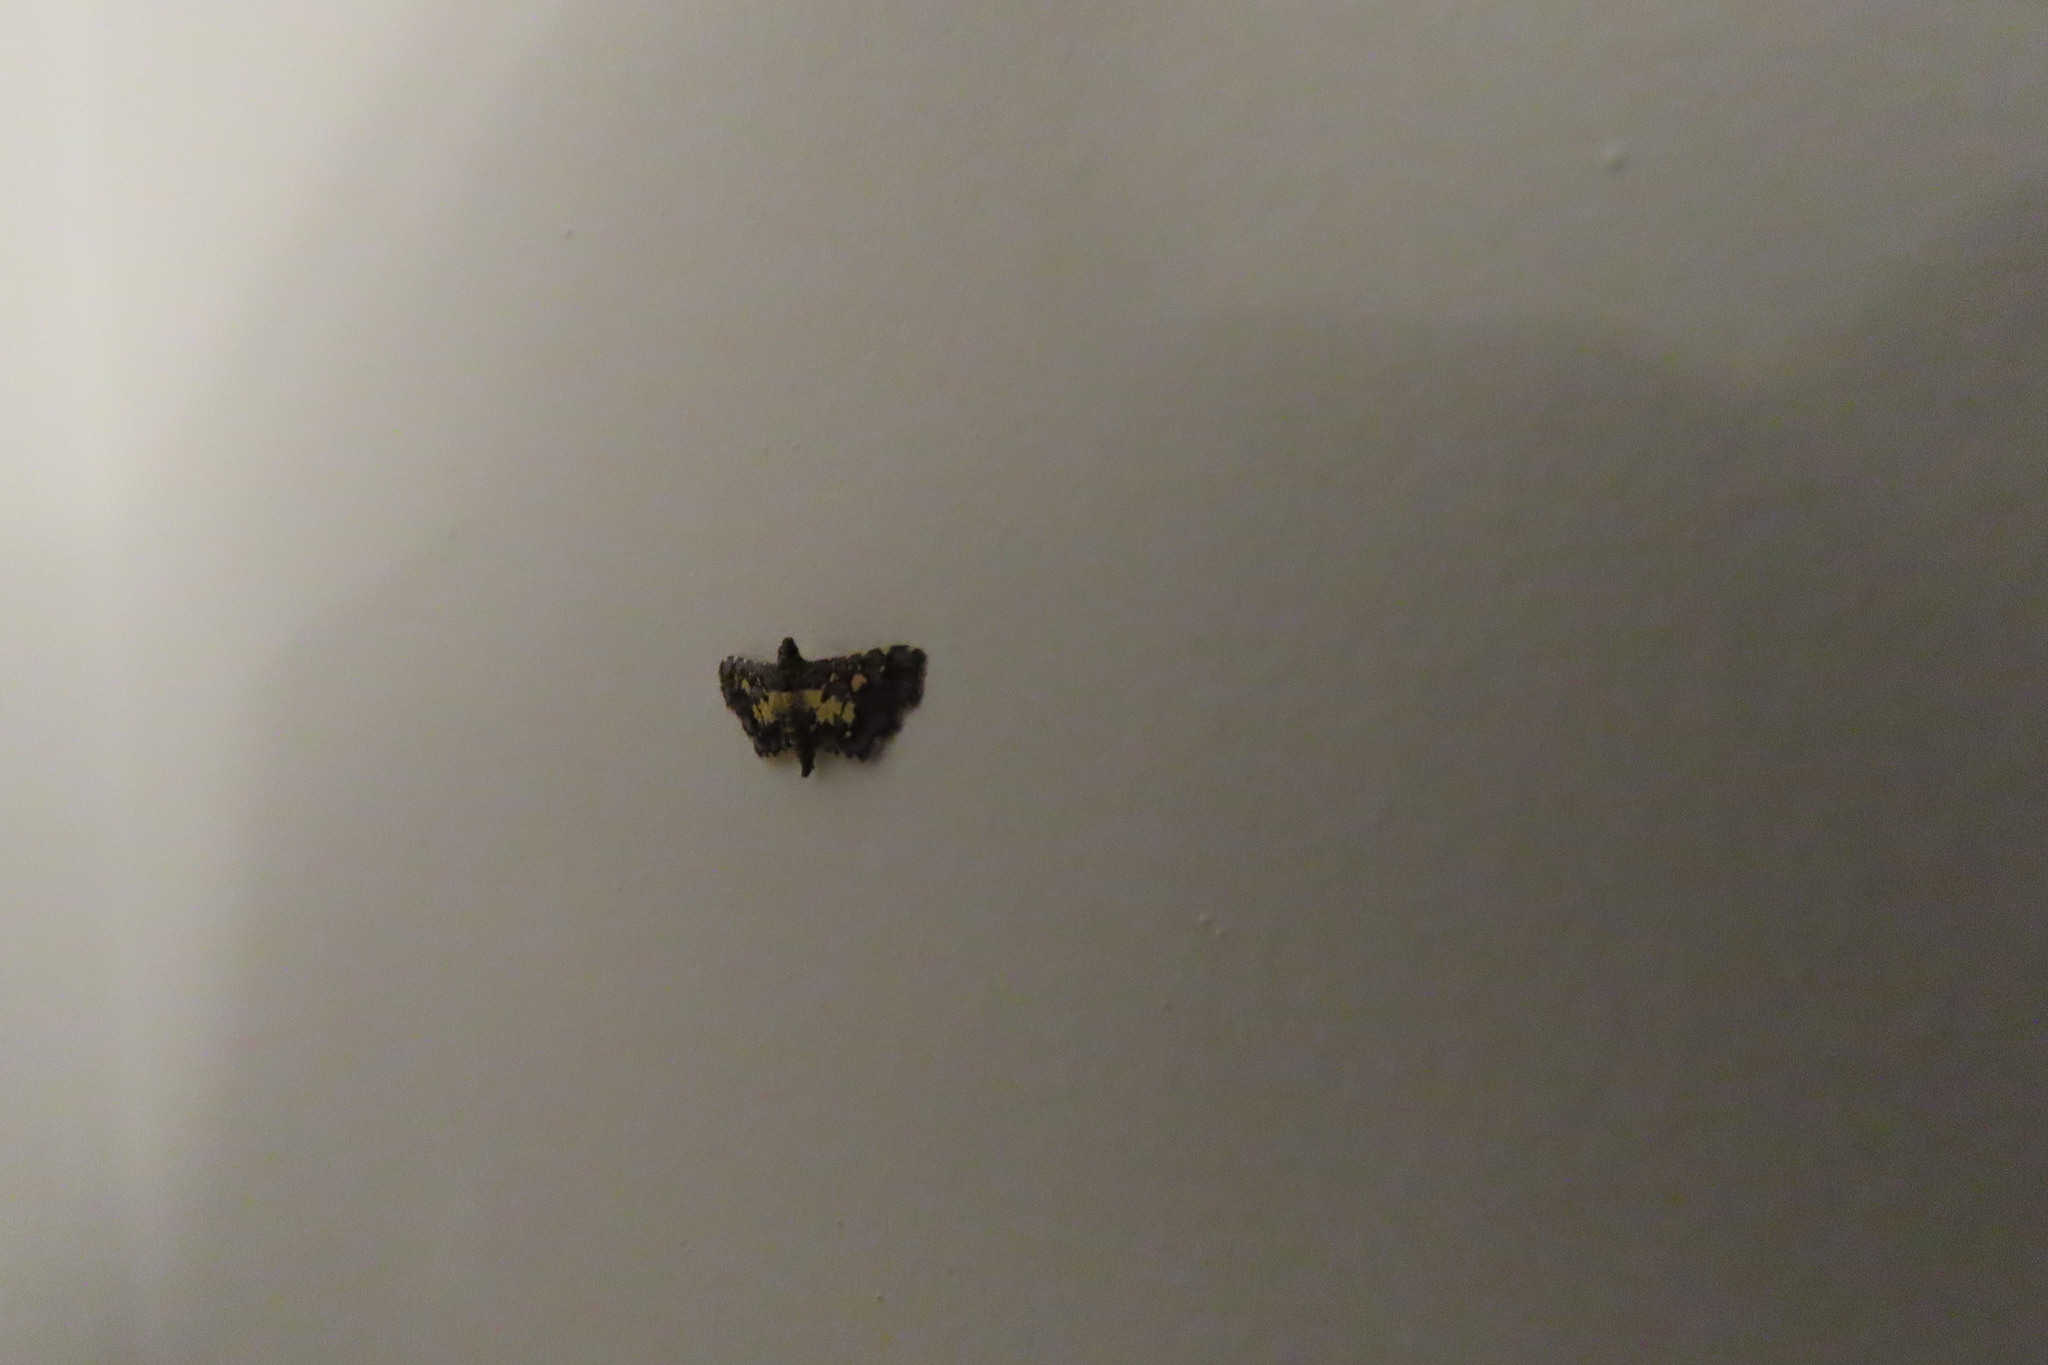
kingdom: Animalia
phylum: Arthropoda
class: Insecta
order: Lepidoptera
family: Crambidae
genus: Eurrhyparodes
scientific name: Eurrhyparodes bracteolalis
